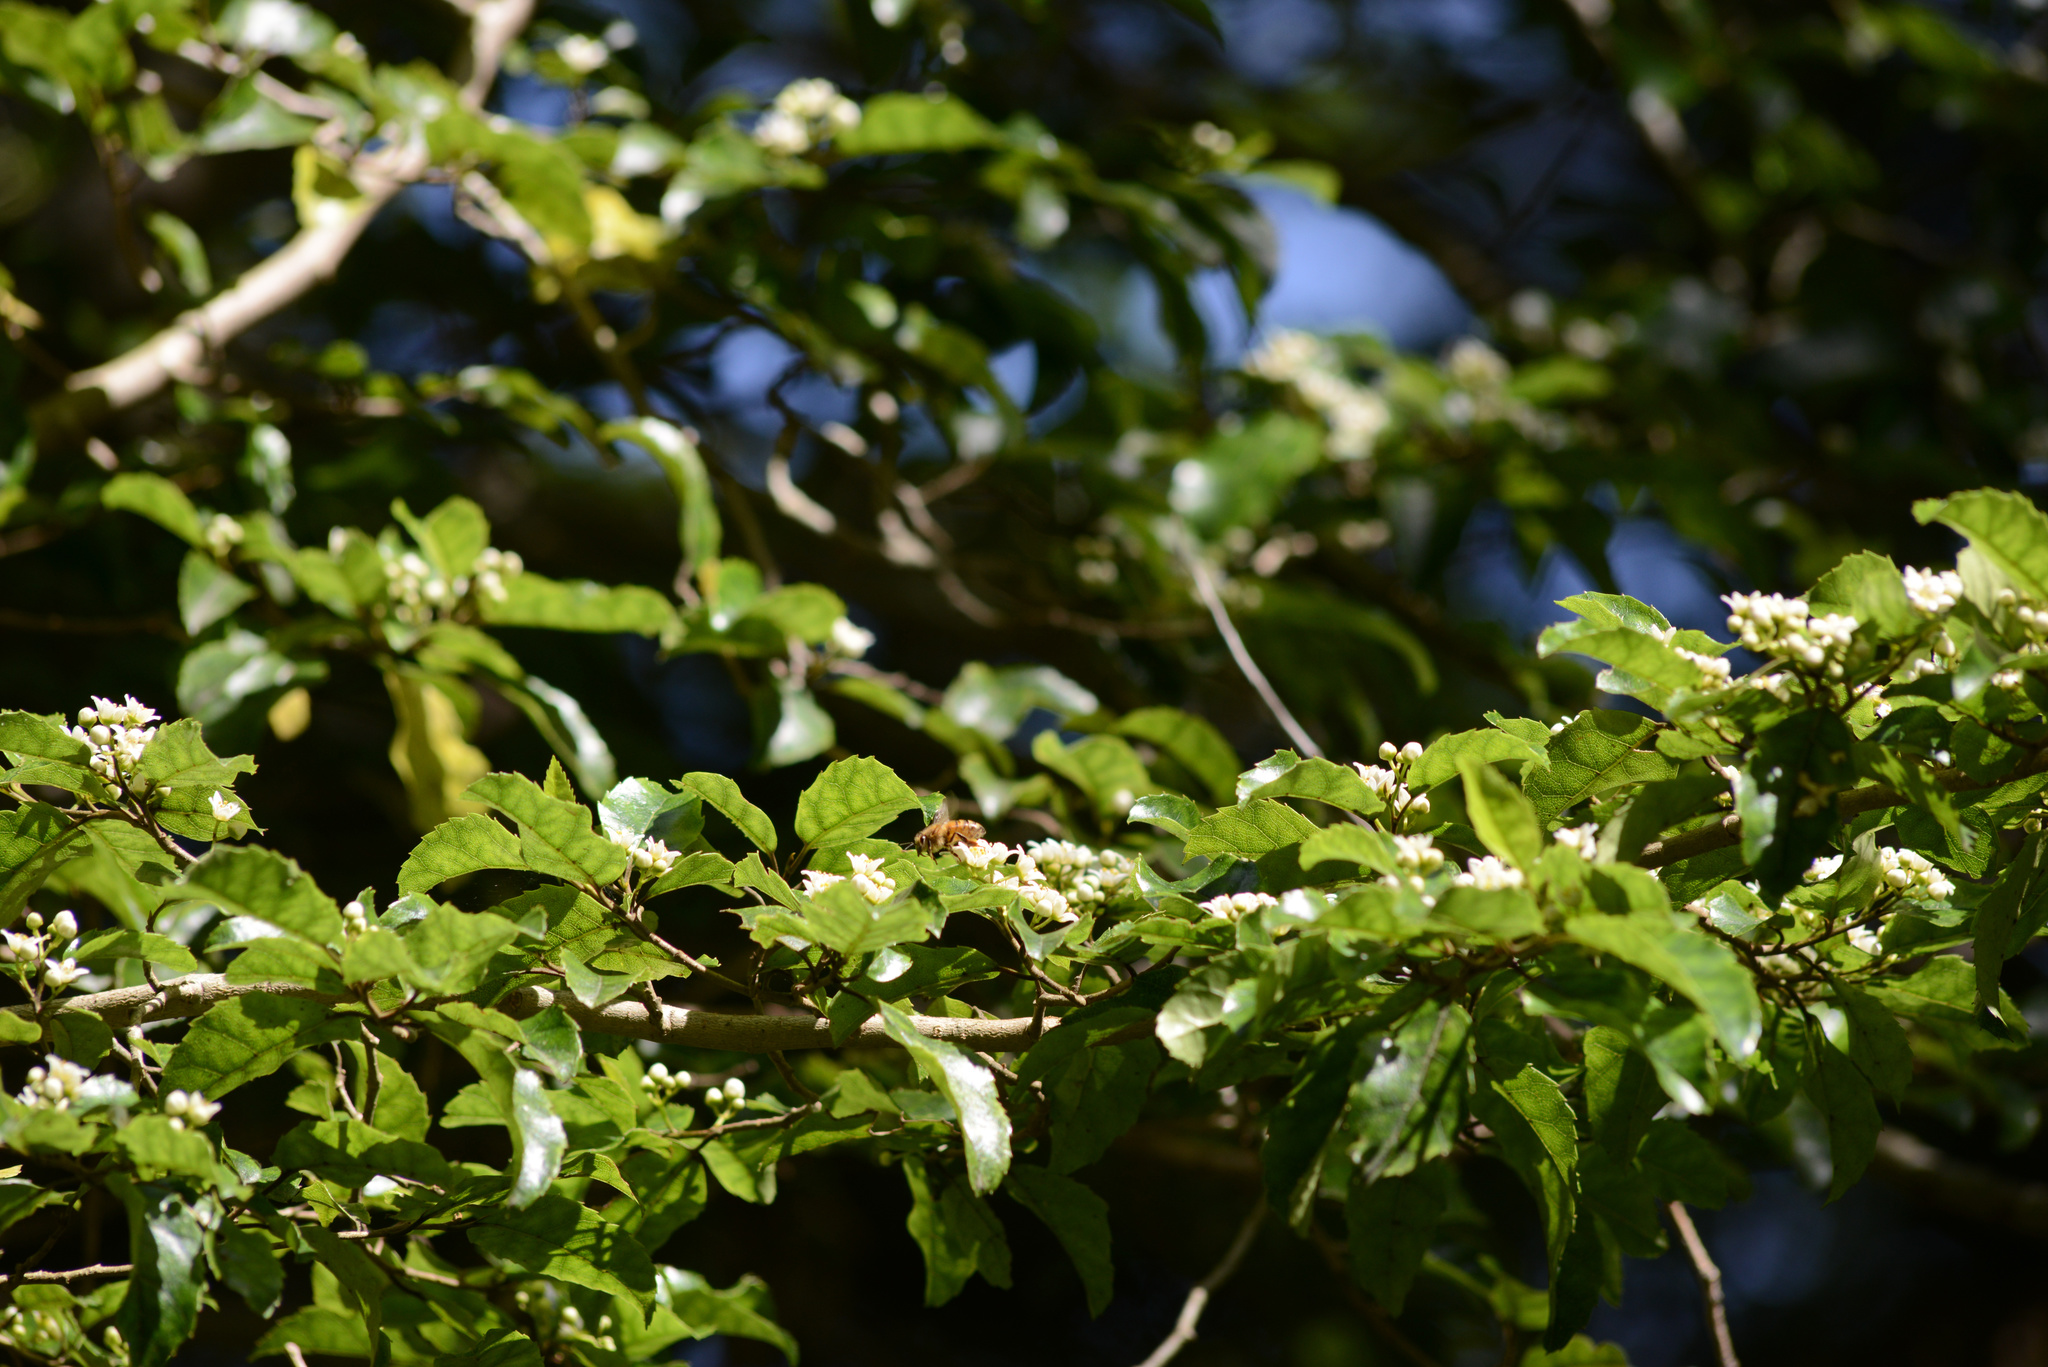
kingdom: Plantae
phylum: Tracheophyta
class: Magnoliopsida
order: Asterales
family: Rousseaceae
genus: Carpodetus
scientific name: Carpodetus serratus
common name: White mapau
